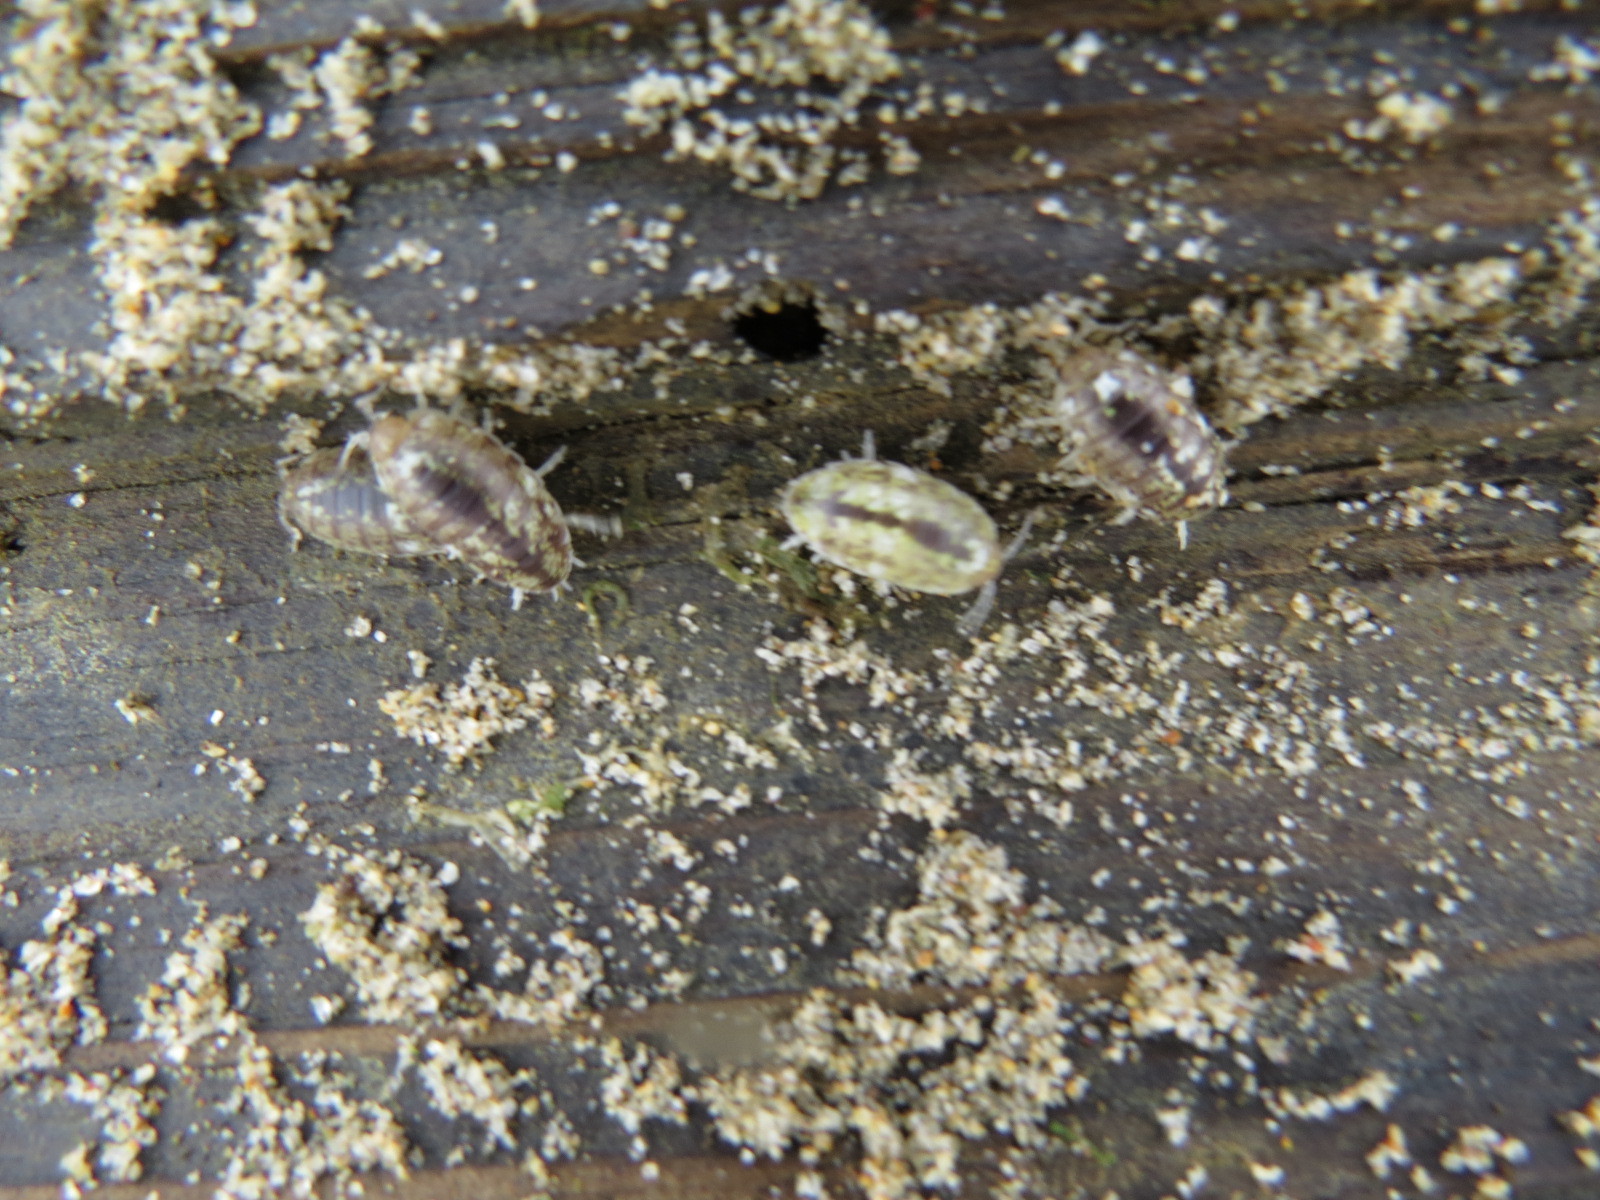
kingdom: Animalia
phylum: Arthropoda
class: Malacostraca
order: Isopoda
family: Alloniscidae
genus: Alloniscus
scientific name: Alloniscus perconvexus
